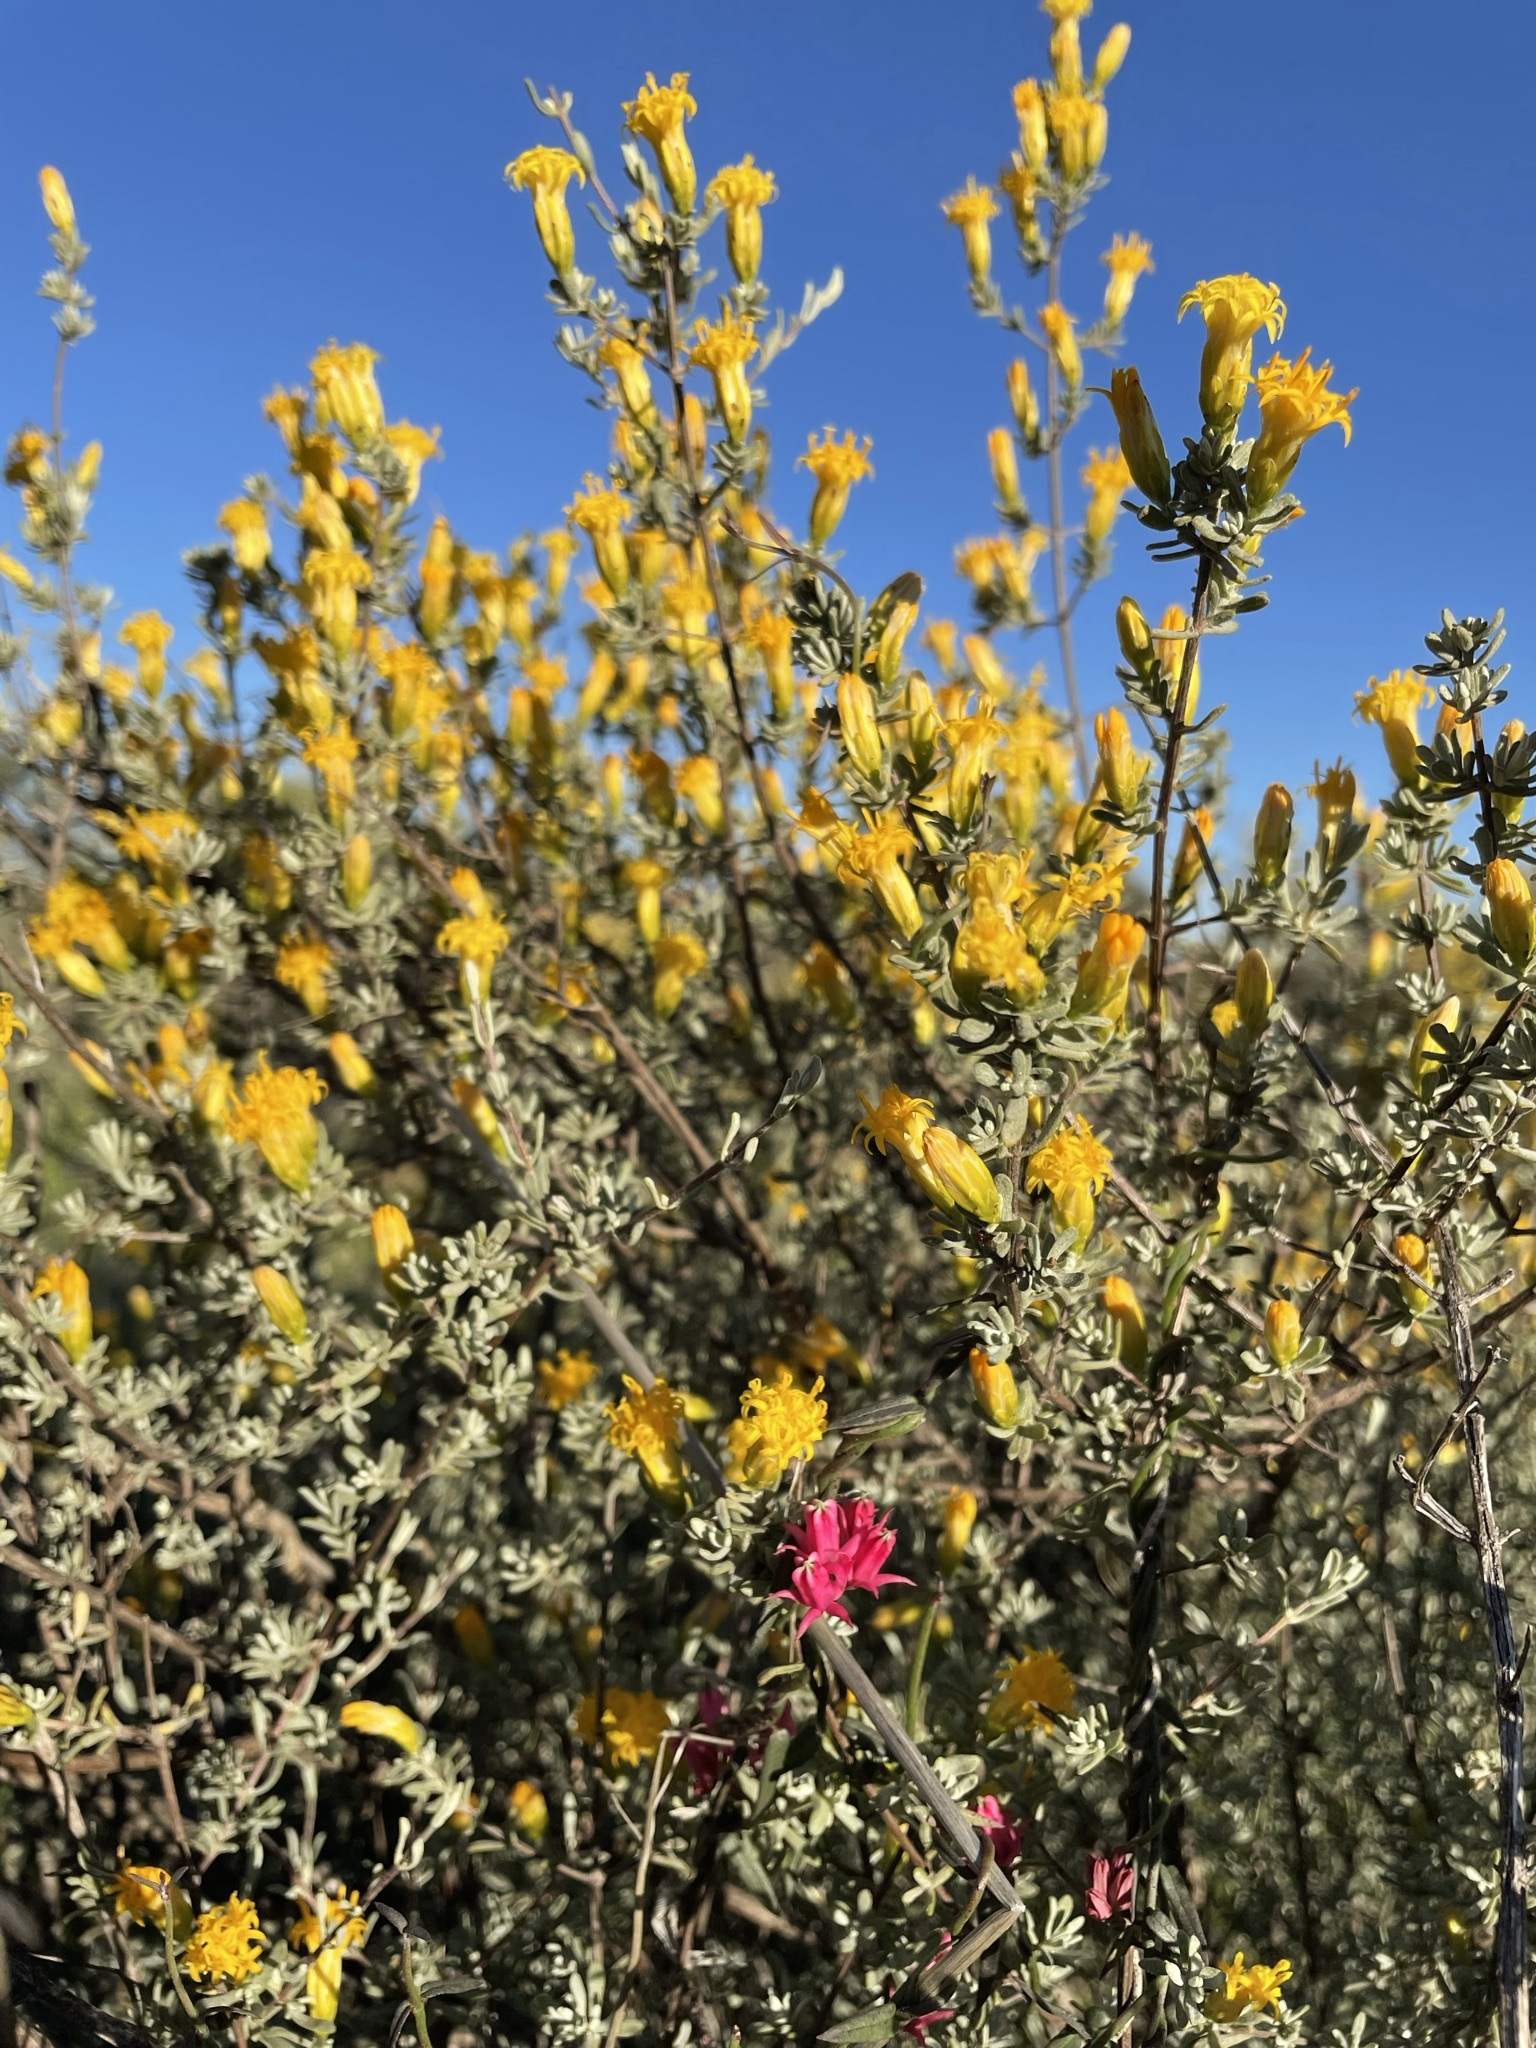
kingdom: Plantae
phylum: Tracheophyta
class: Magnoliopsida
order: Asterales
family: Asteraceae
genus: Pteronia
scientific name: Pteronia incana
